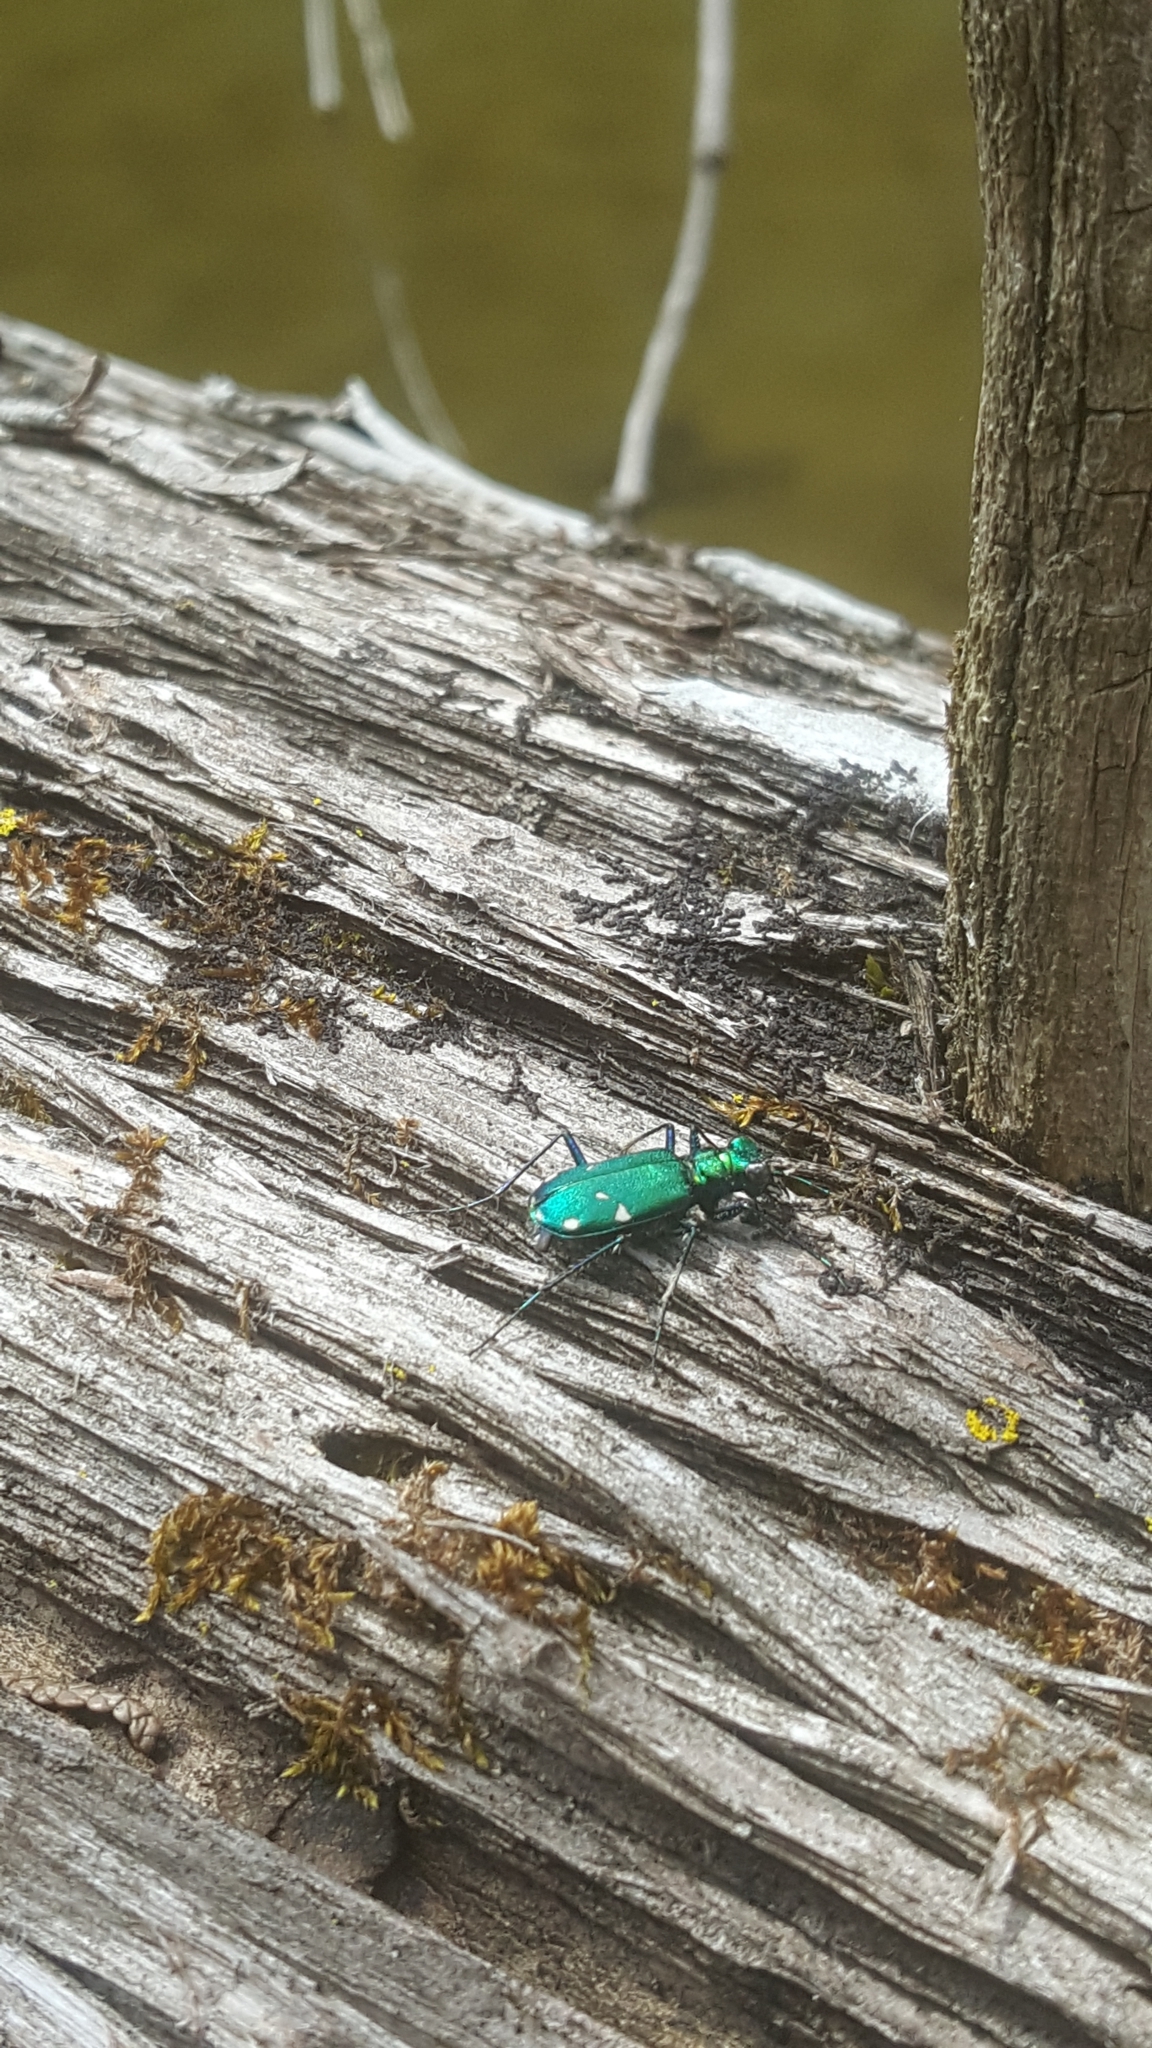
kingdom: Animalia
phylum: Arthropoda
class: Insecta
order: Coleoptera
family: Carabidae
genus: Cicindela
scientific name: Cicindela sexguttata
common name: Six-spotted tiger beetle
